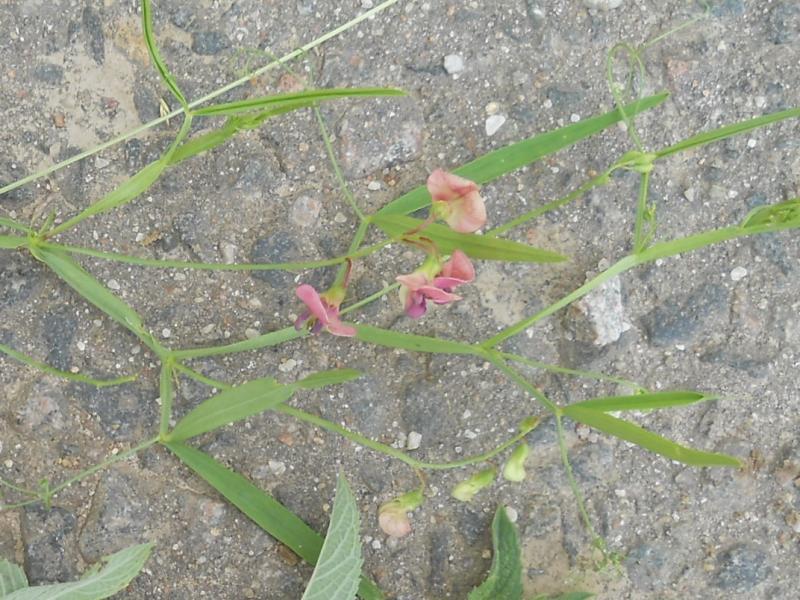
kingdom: Plantae
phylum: Tracheophyta
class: Magnoliopsida
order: Fabales
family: Fabaceae
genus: Lathyrus
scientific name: Lathyrus sylvestris
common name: Flat pea
